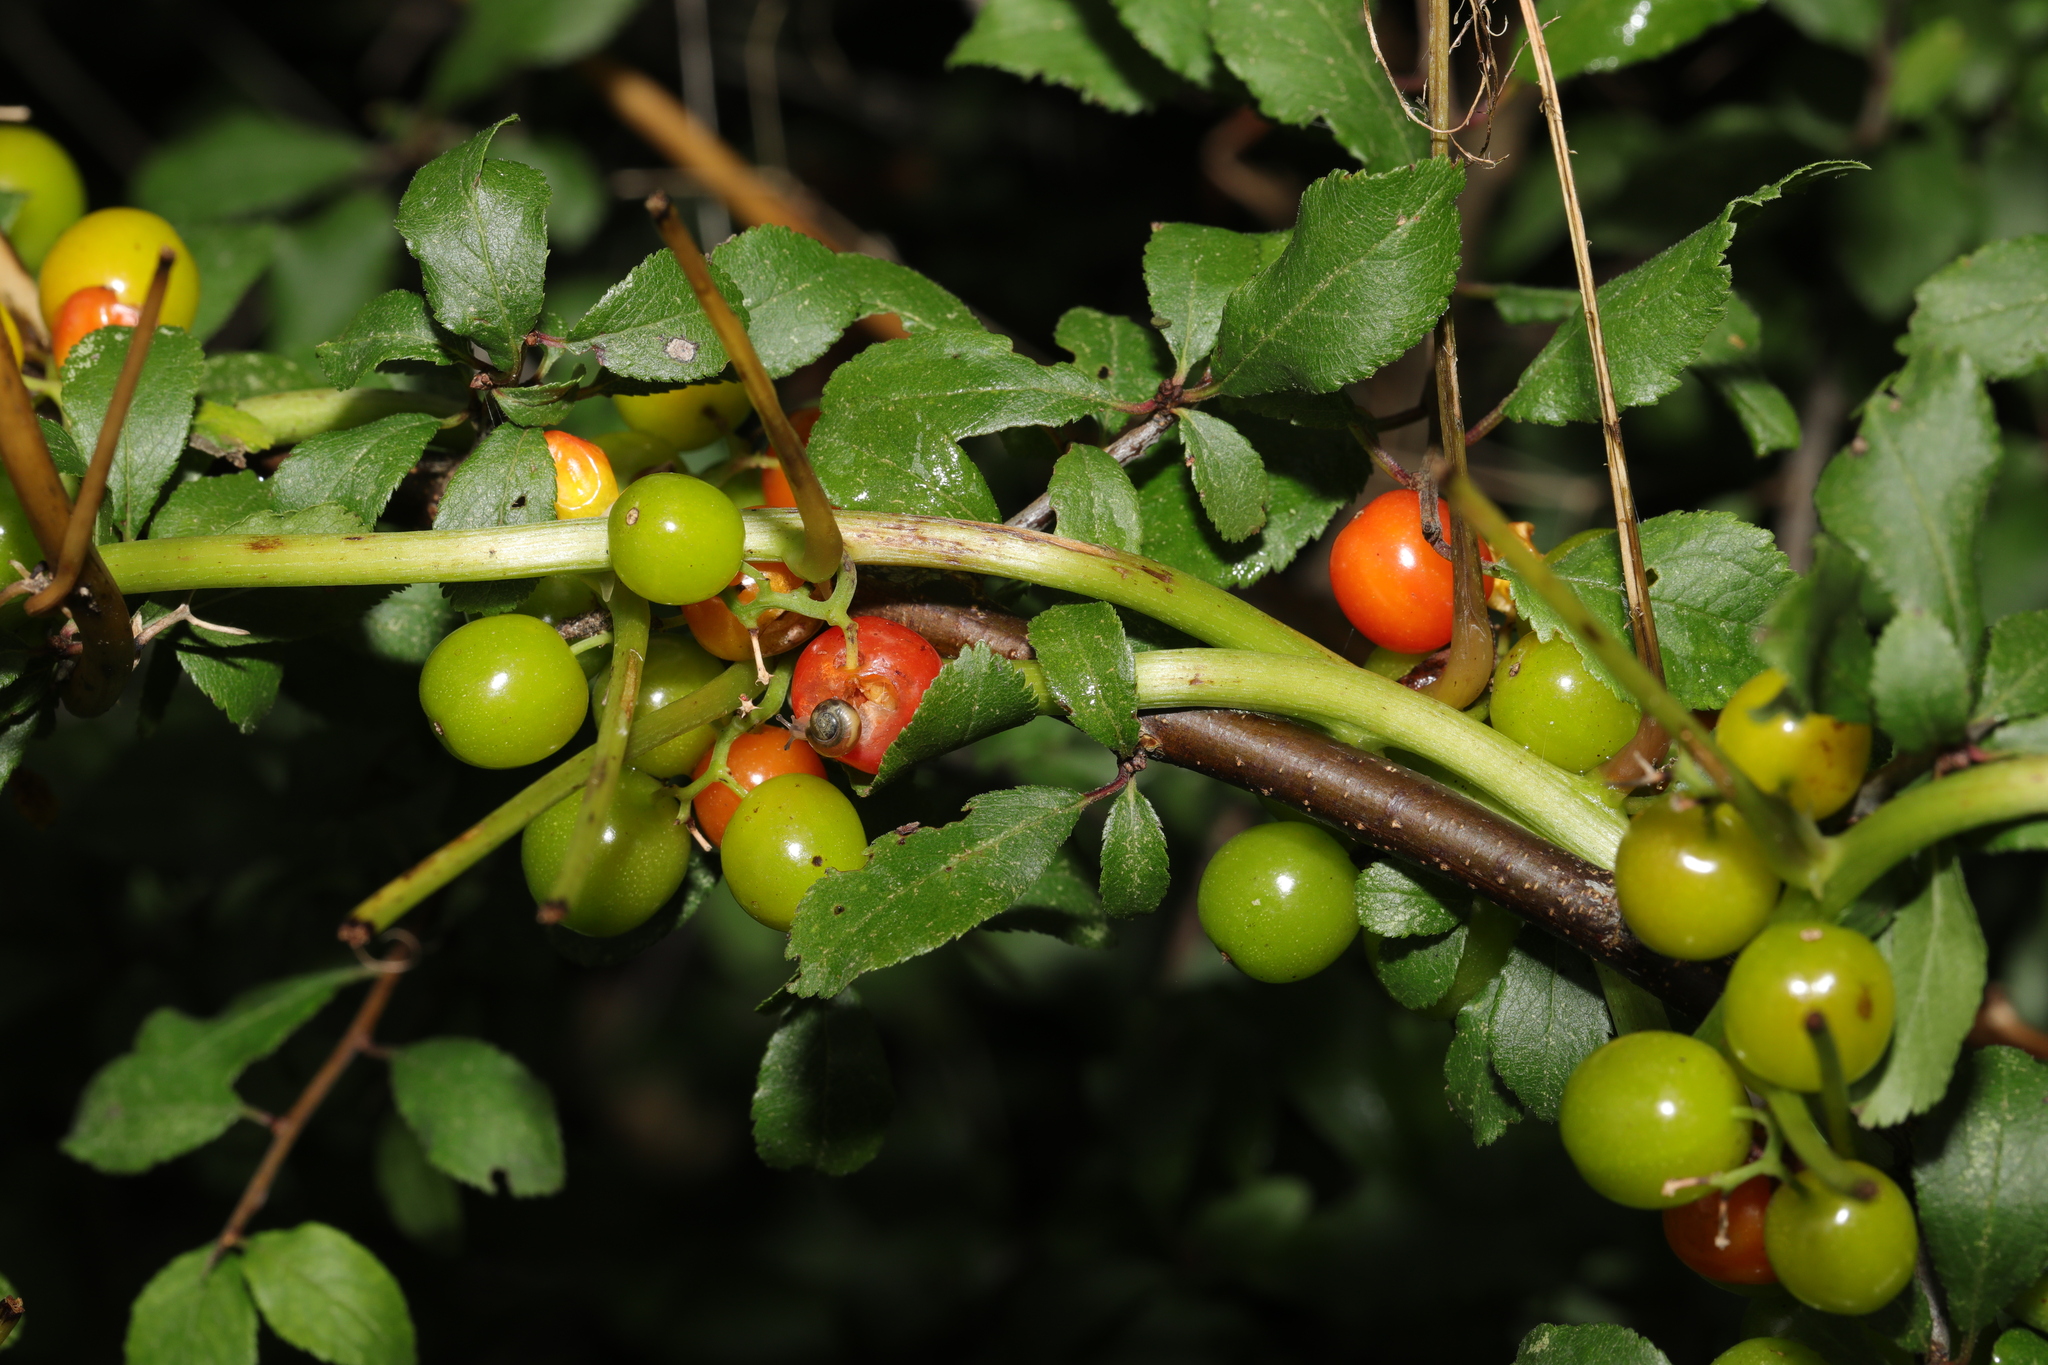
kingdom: Plantae
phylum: Tracheophyta
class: Liliopsida
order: Dioscoreales
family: Dioscoreaceae
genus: Dioscorea
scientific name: Dioscorea communis
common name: Black-bindweed
